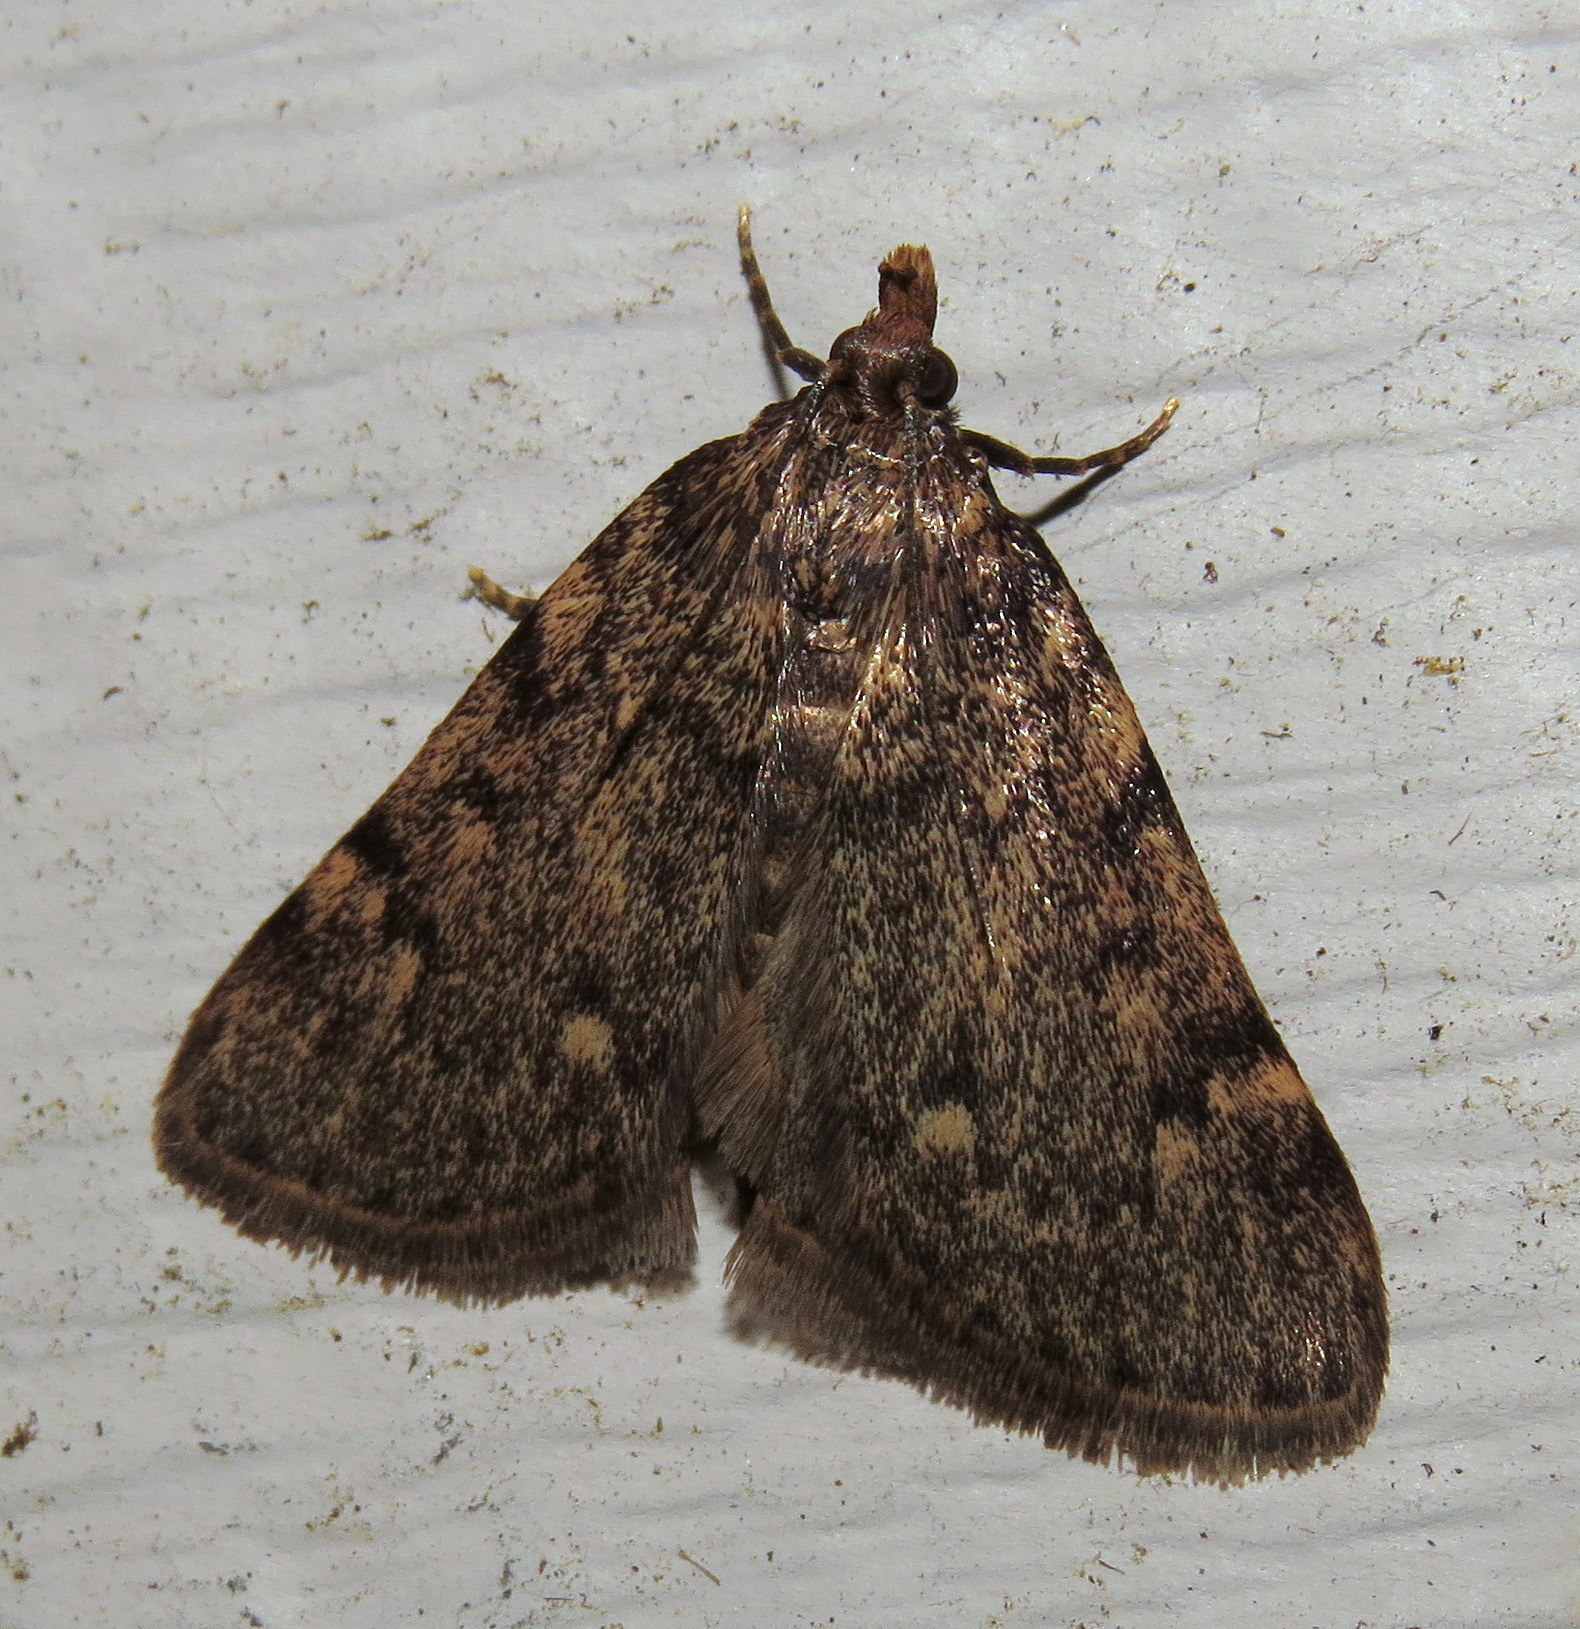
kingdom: Animalia
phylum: Arthropoda
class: Insecta
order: Lepidoptera
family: Pyralidae
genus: Aglossa
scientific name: Aglossa pinguinalis
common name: Large tabby
